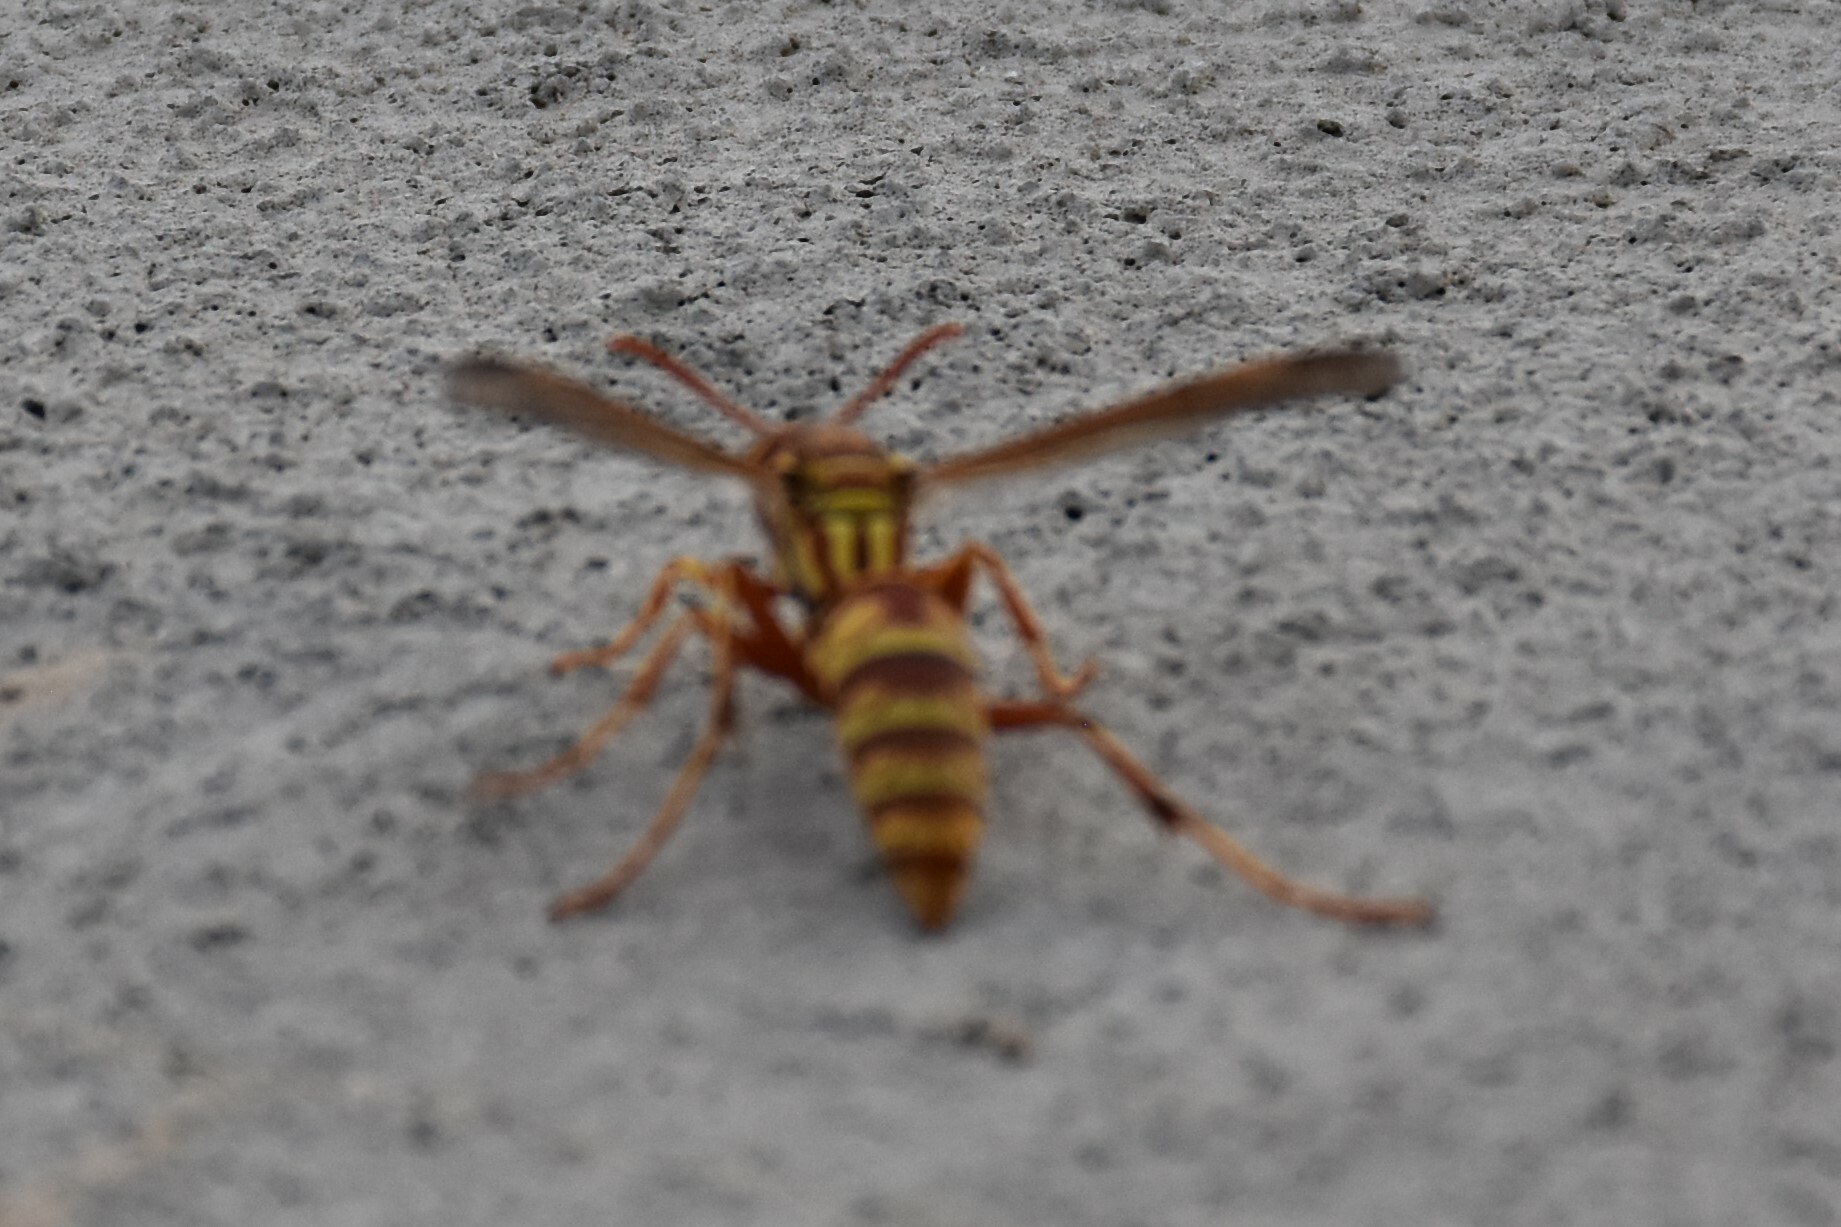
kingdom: Animalia
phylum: Arthropoda
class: Insecta
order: Hymenoptera
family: Vespidae
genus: Fuscopolistes
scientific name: Fuscopolistes
